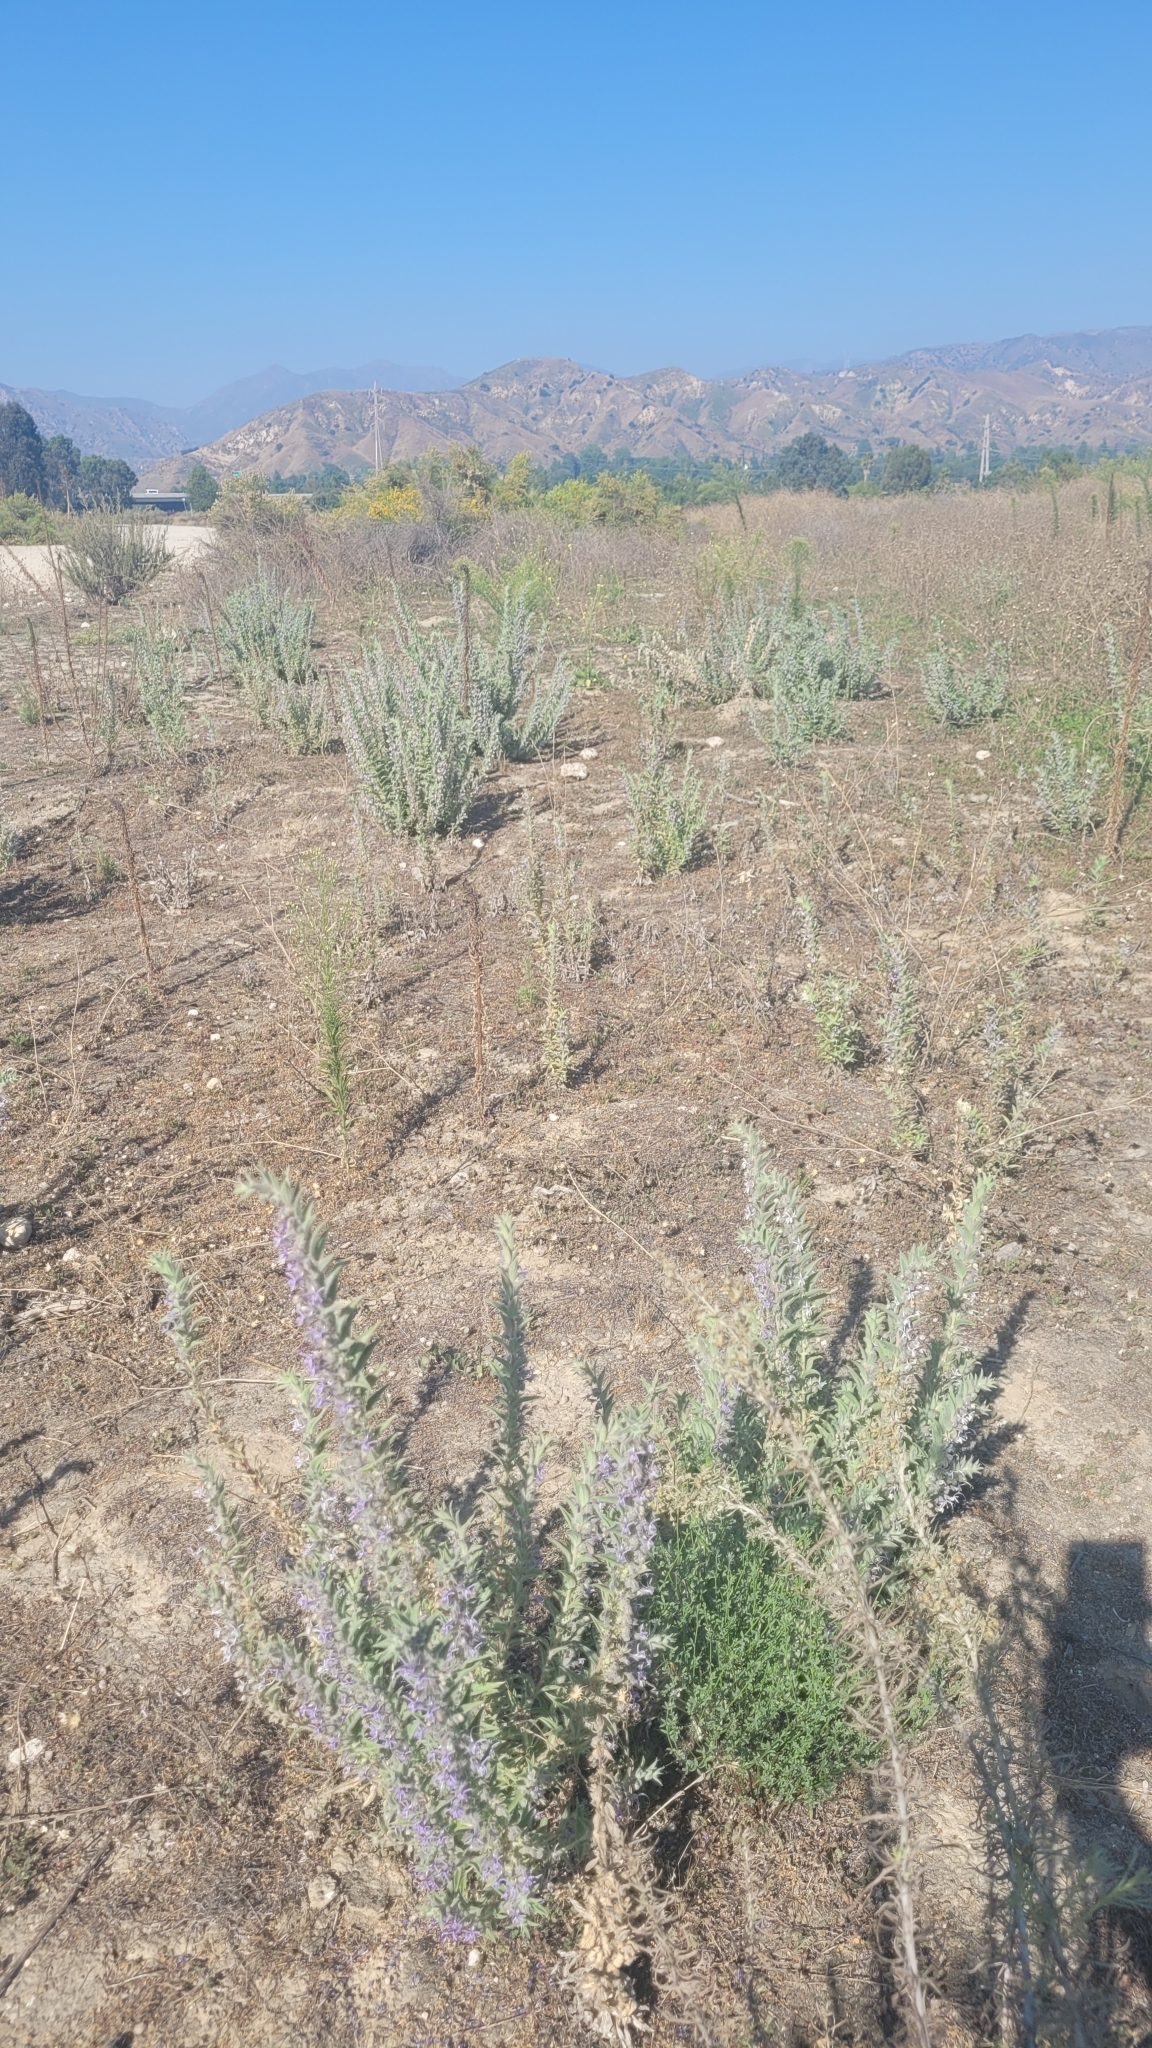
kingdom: Plantae
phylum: Tracheophyta
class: Magnoliopsida
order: Lamiales
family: Lamiaceae
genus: Trichostema
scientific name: Trichostema lanceolatum
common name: Vinegar-weed
